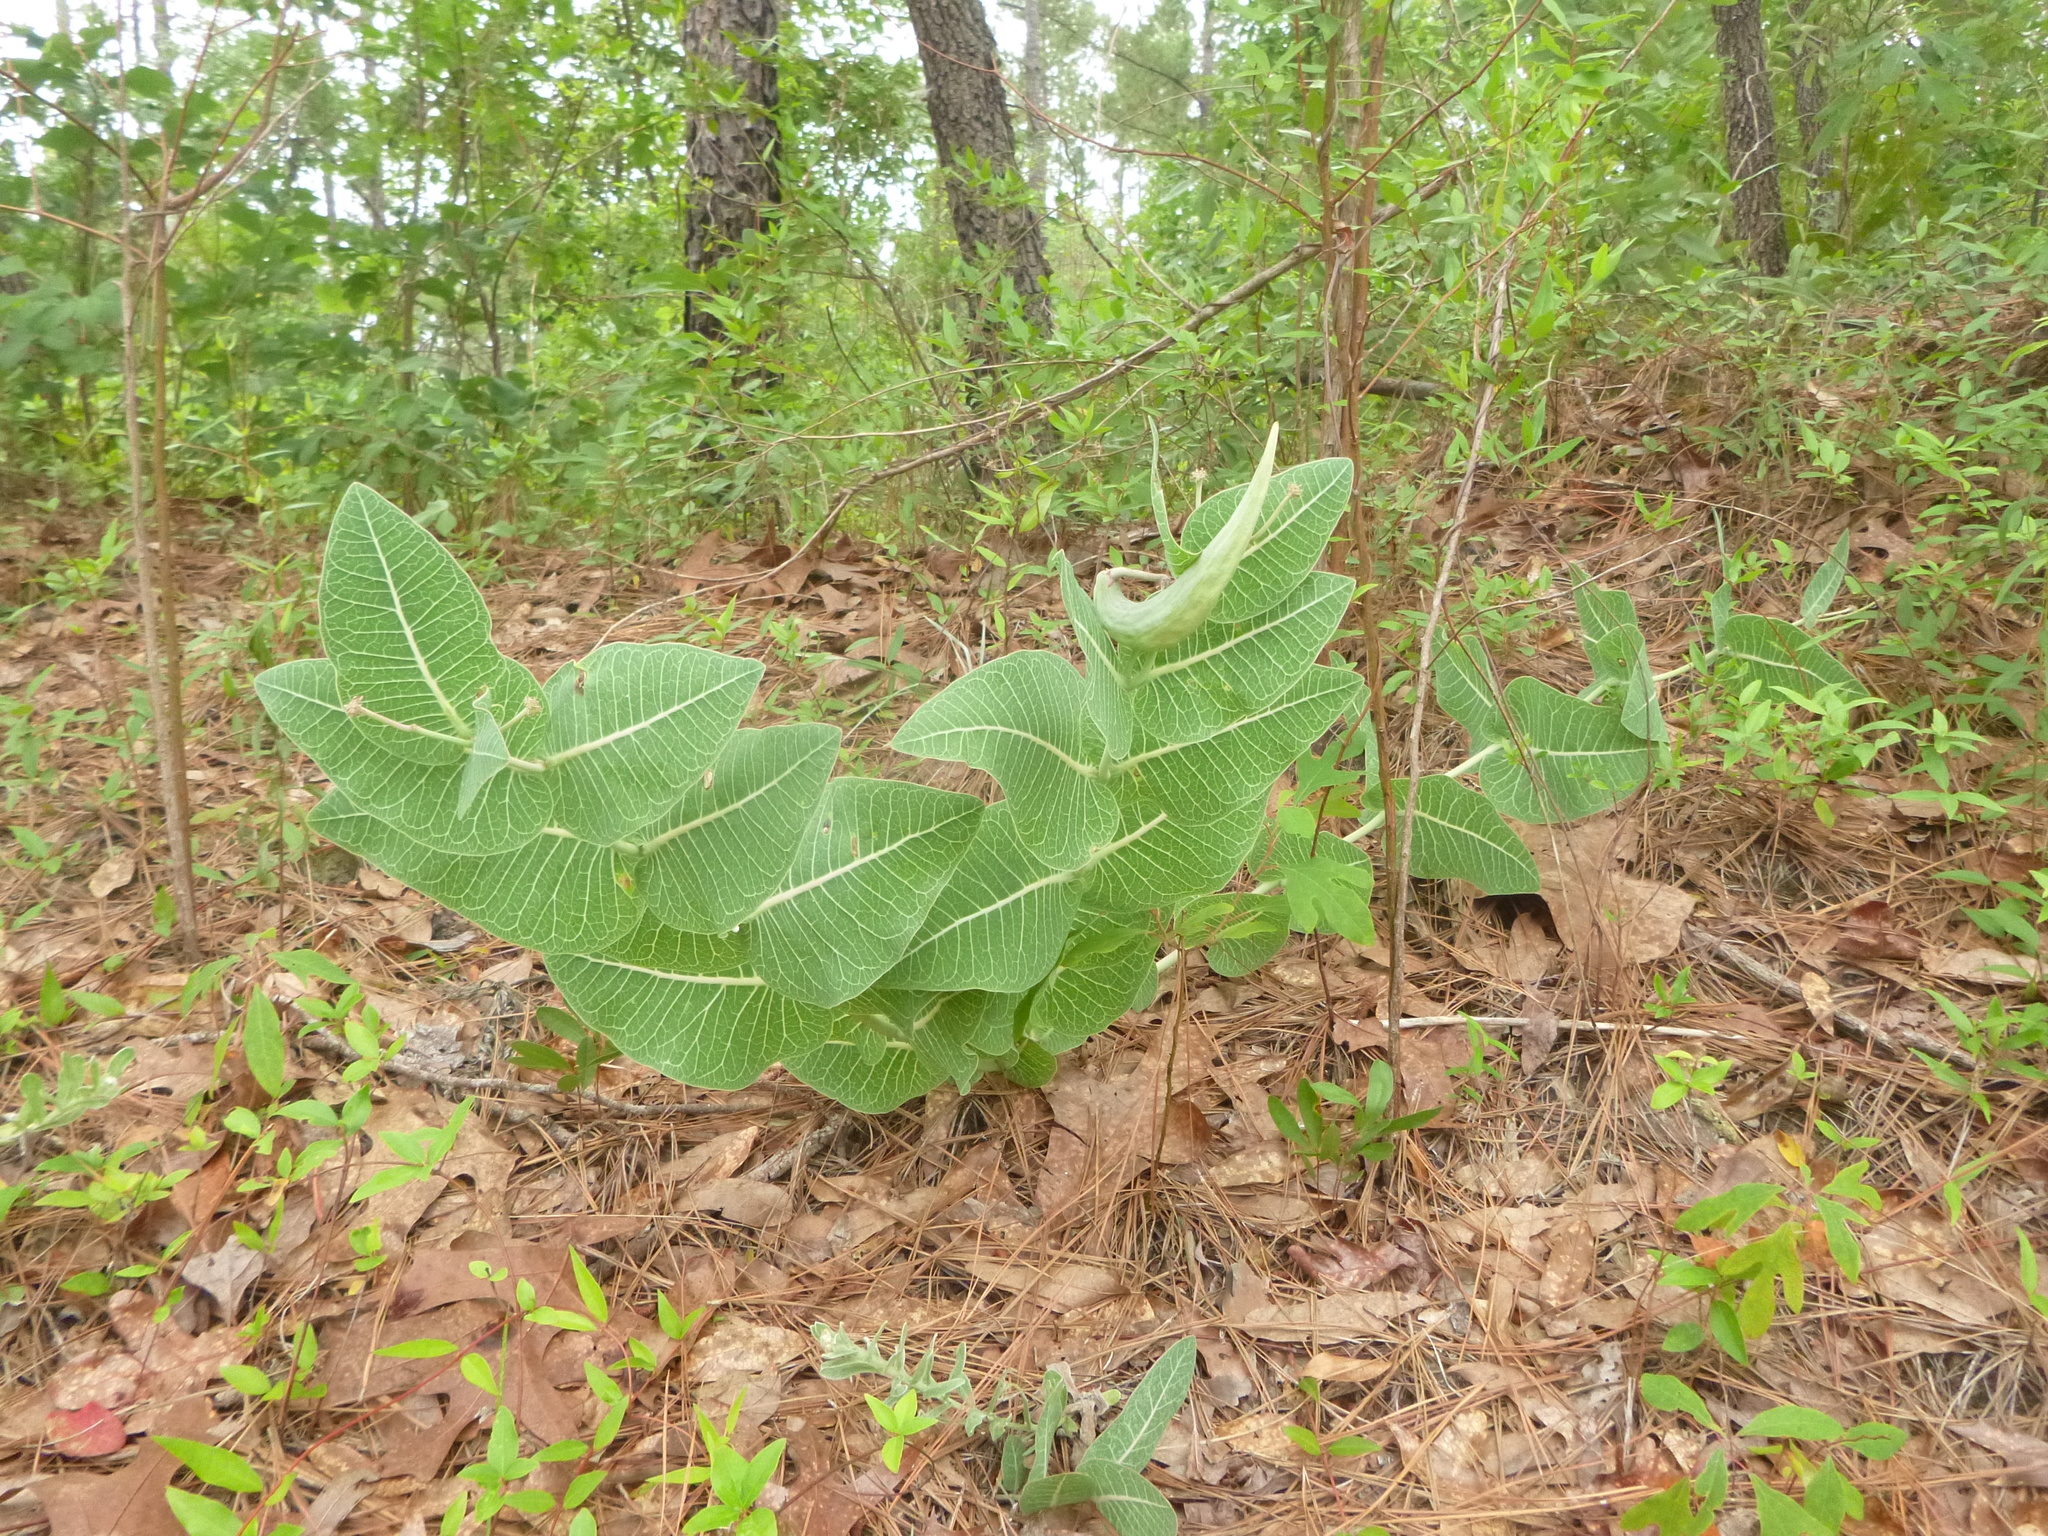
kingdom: Plantae
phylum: Tracheophyta
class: Magnoliopsida
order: Gentianales
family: Apocynaceae
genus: Asclepias
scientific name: Asclepias humistrata
